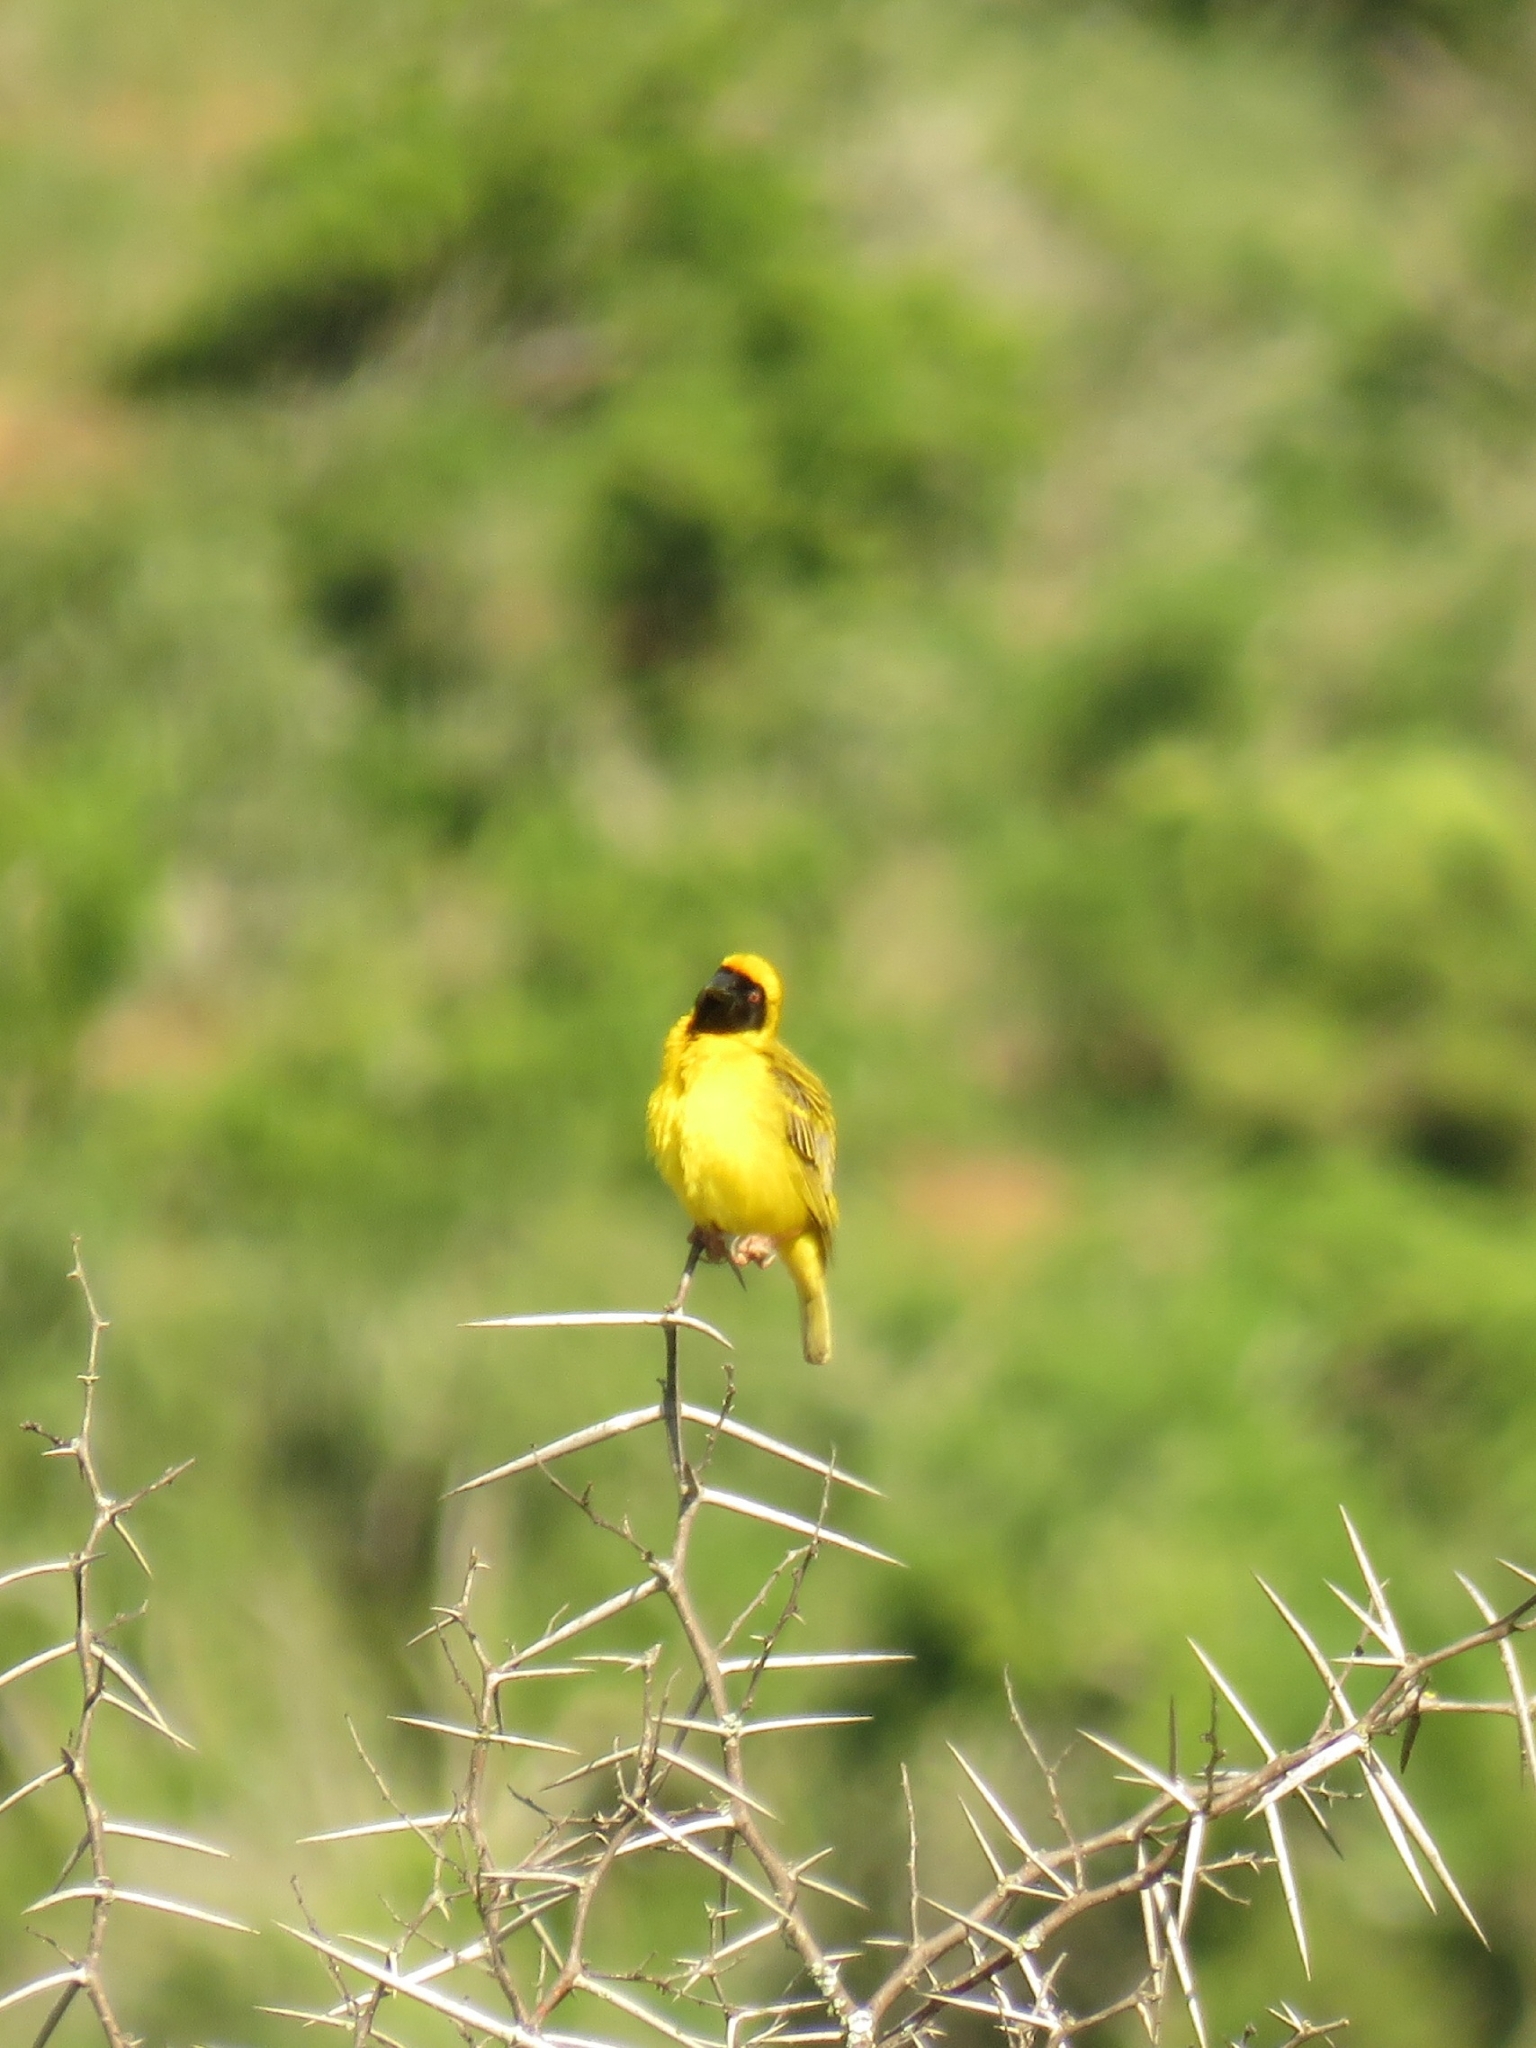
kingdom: Animalia
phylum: Chordata
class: Aves
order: Passeriformes
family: Ploceidae
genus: Ploceus
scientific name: Ploceus velatus
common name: Southern masked weaver
